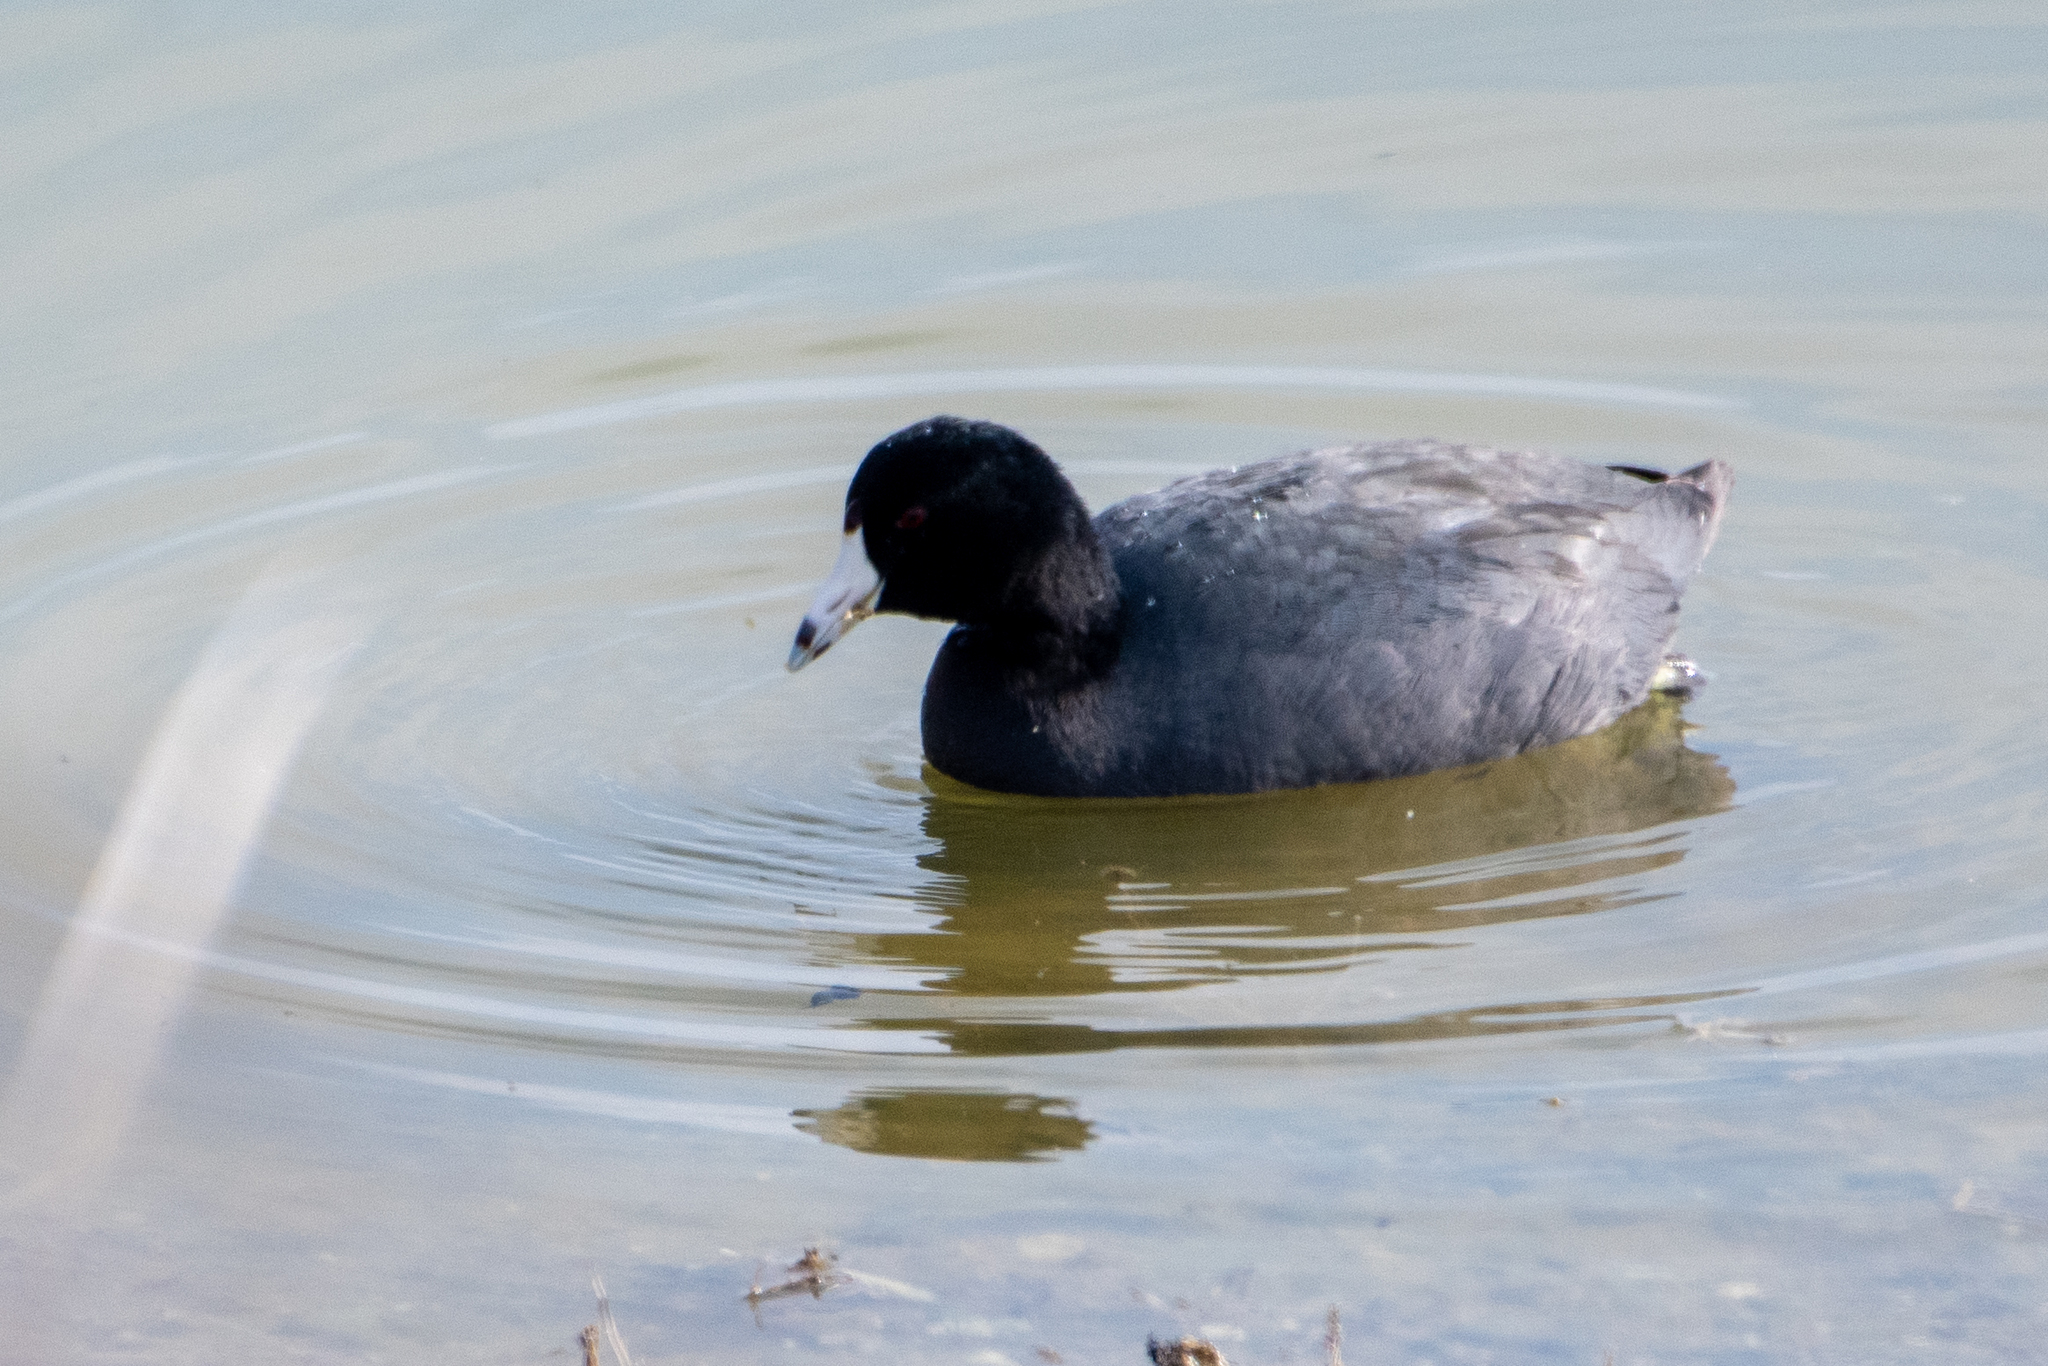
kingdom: Animalia
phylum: Chordata
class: Aves
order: Gruiformes
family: Rallidae
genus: Fulica
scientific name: Fulica americana
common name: American coot
